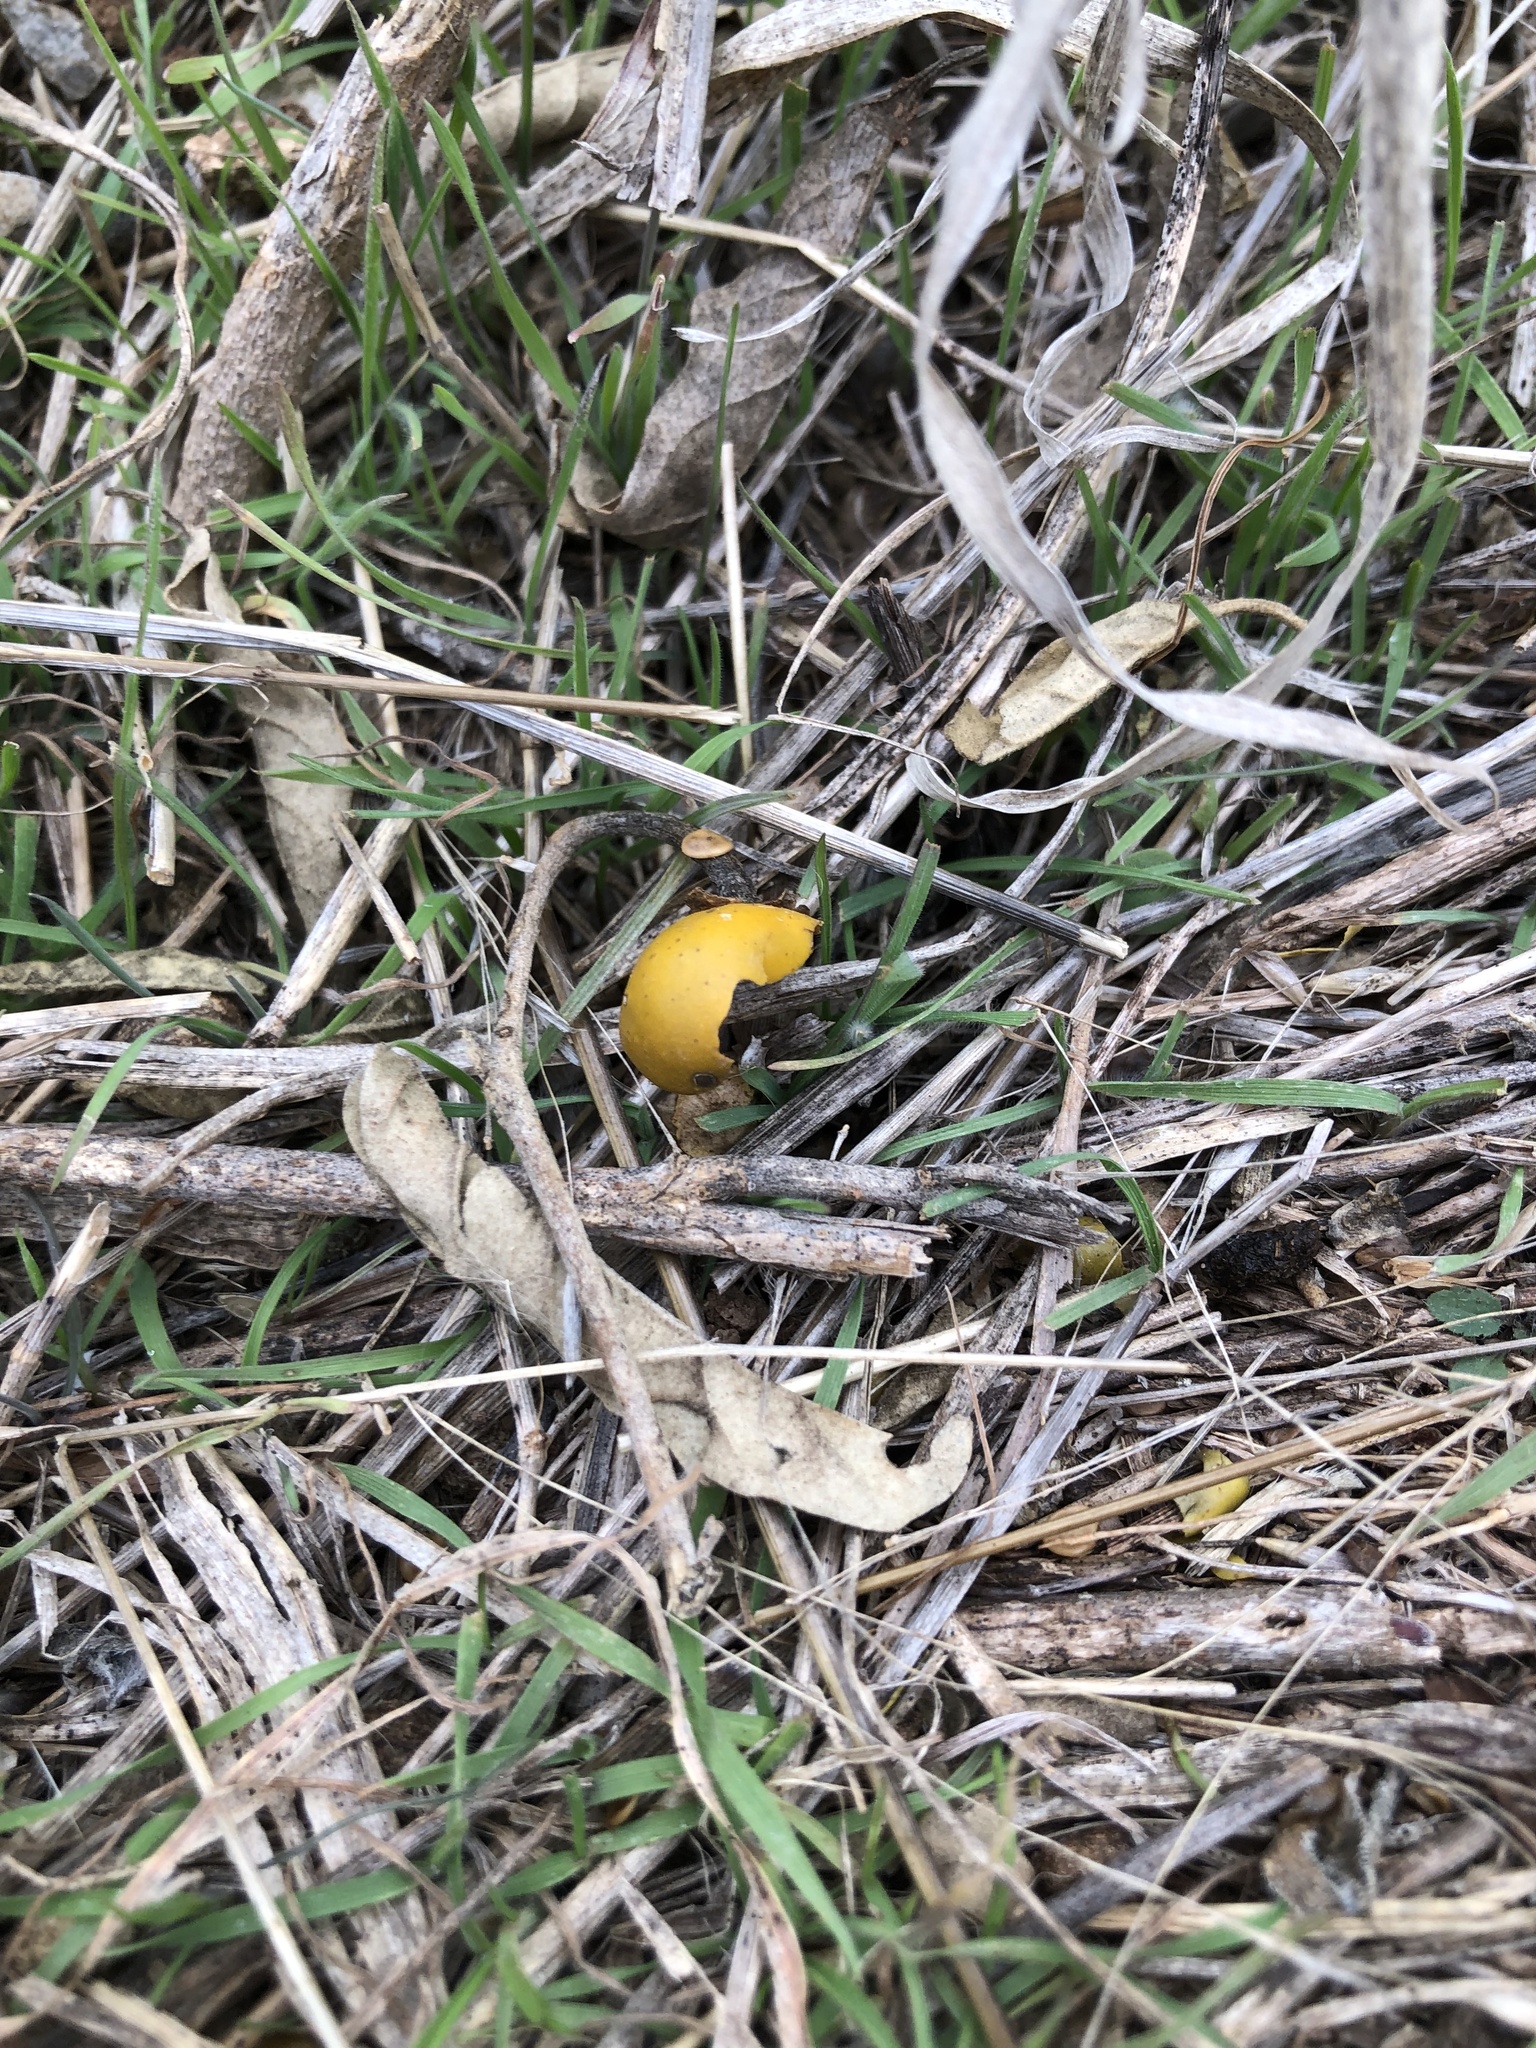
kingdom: Plantae
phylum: Tracheophyta
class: Magnoliopsida
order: Solanales
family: Solanaceae
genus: Solanum
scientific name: Solanum elaeagnifolium
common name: Silverleaf nightshade
